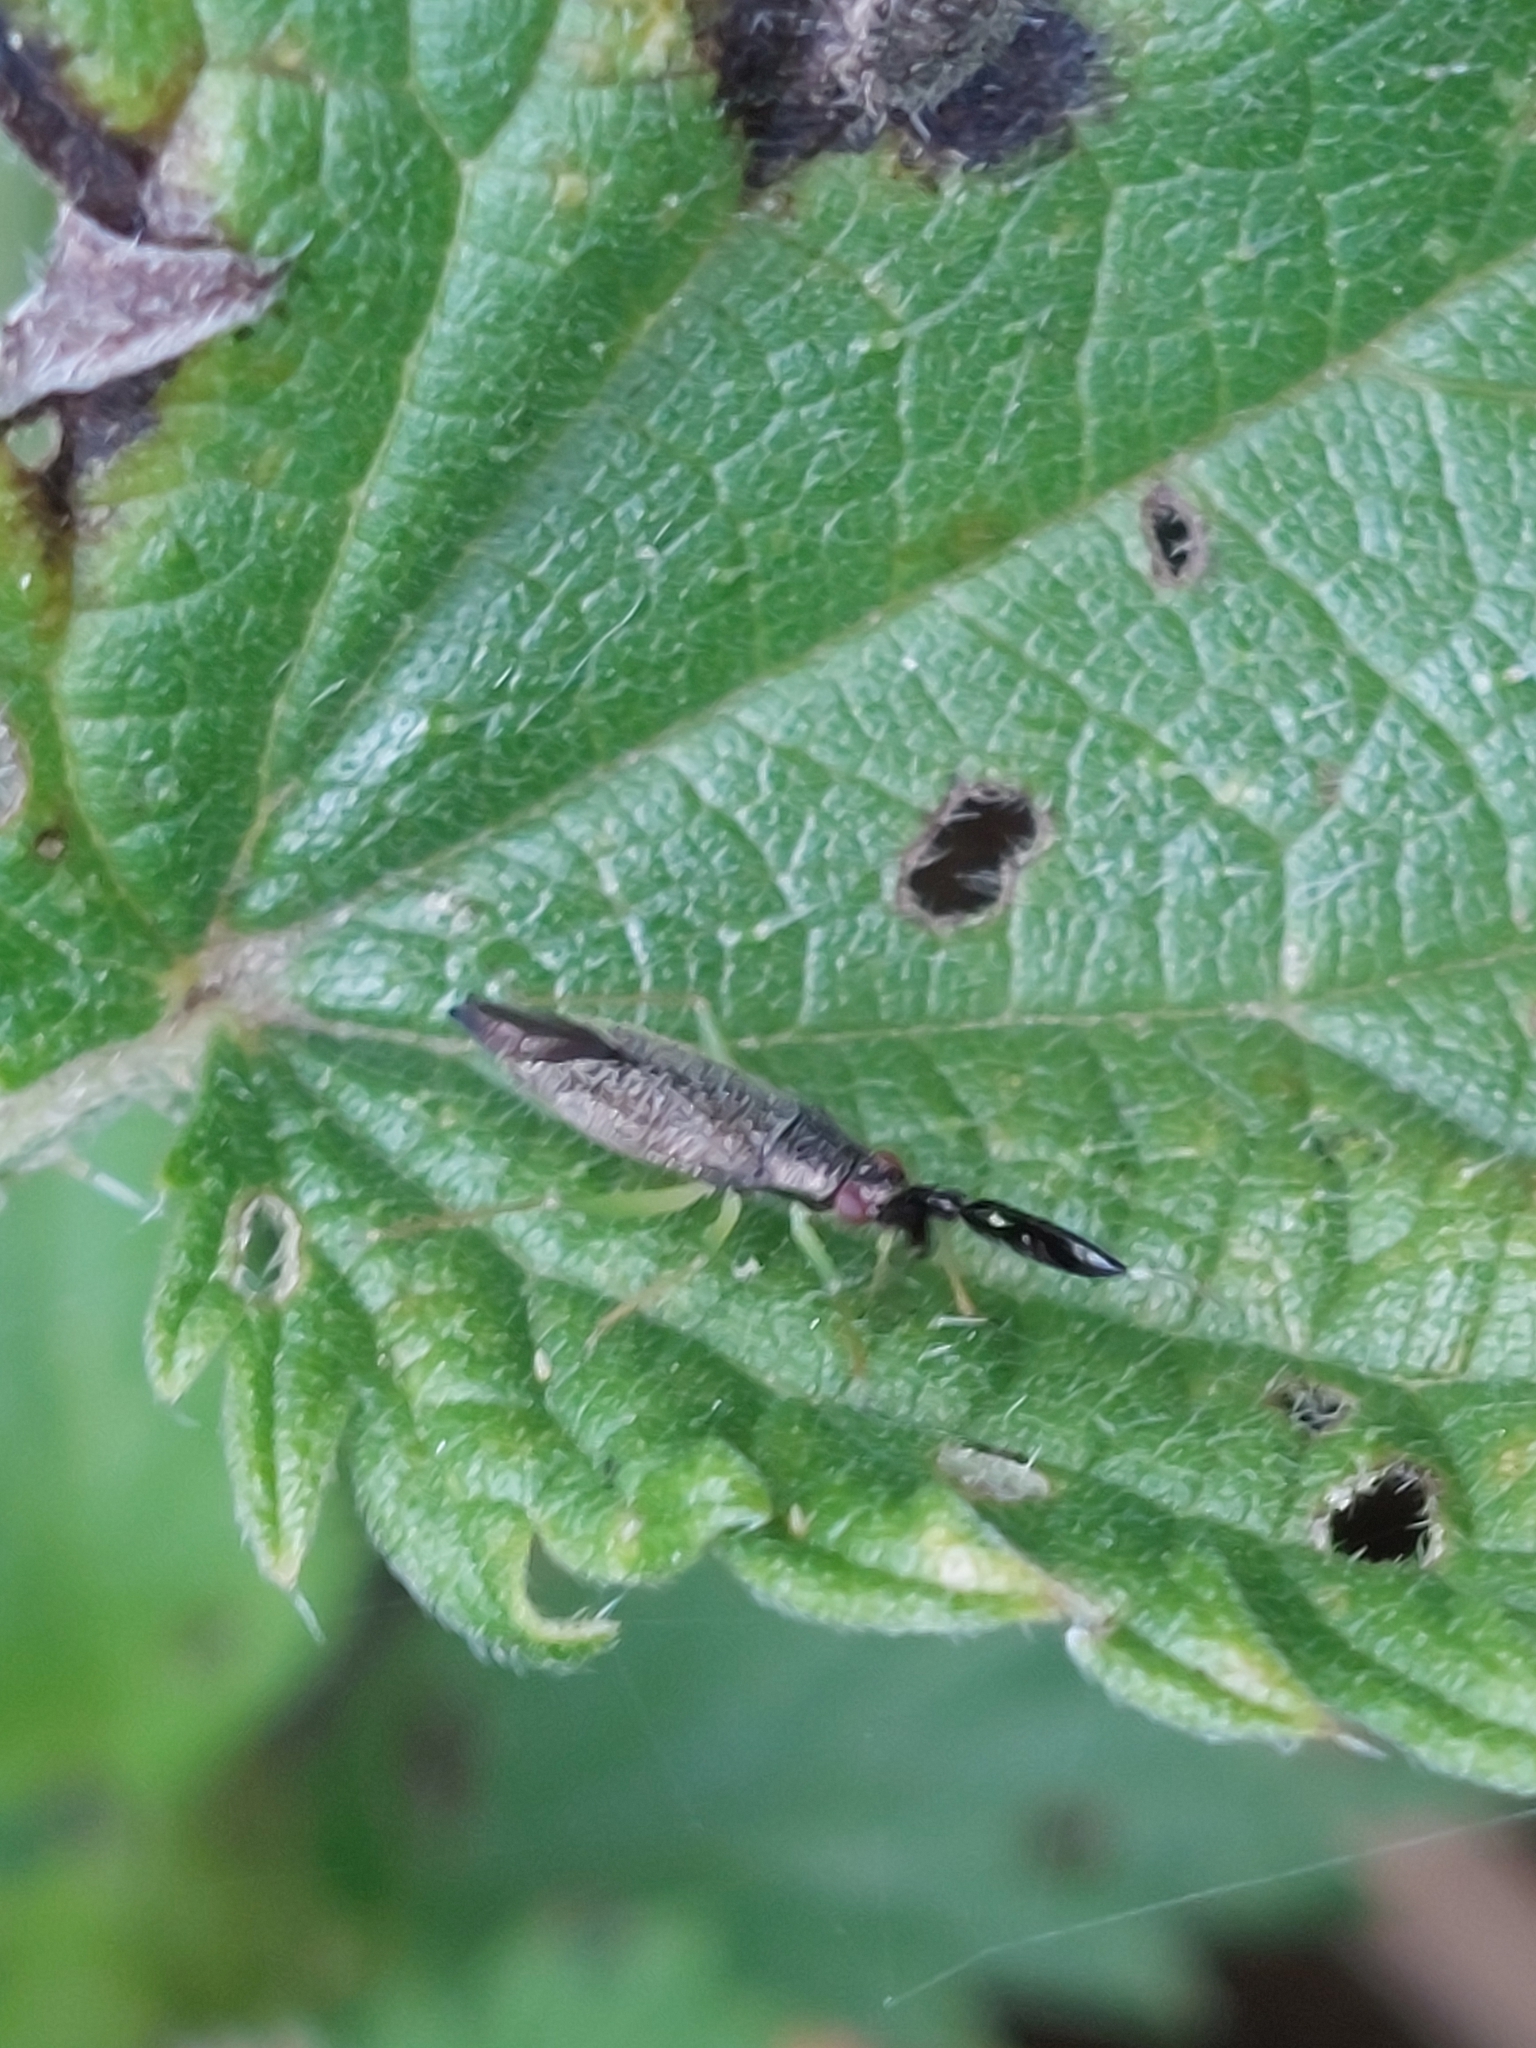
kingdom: Animalia
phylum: Arthropoda
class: Insecta
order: Hemiptera
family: Miridae
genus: Heterotoma
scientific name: Heterotoma planicornis
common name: Plant bug
